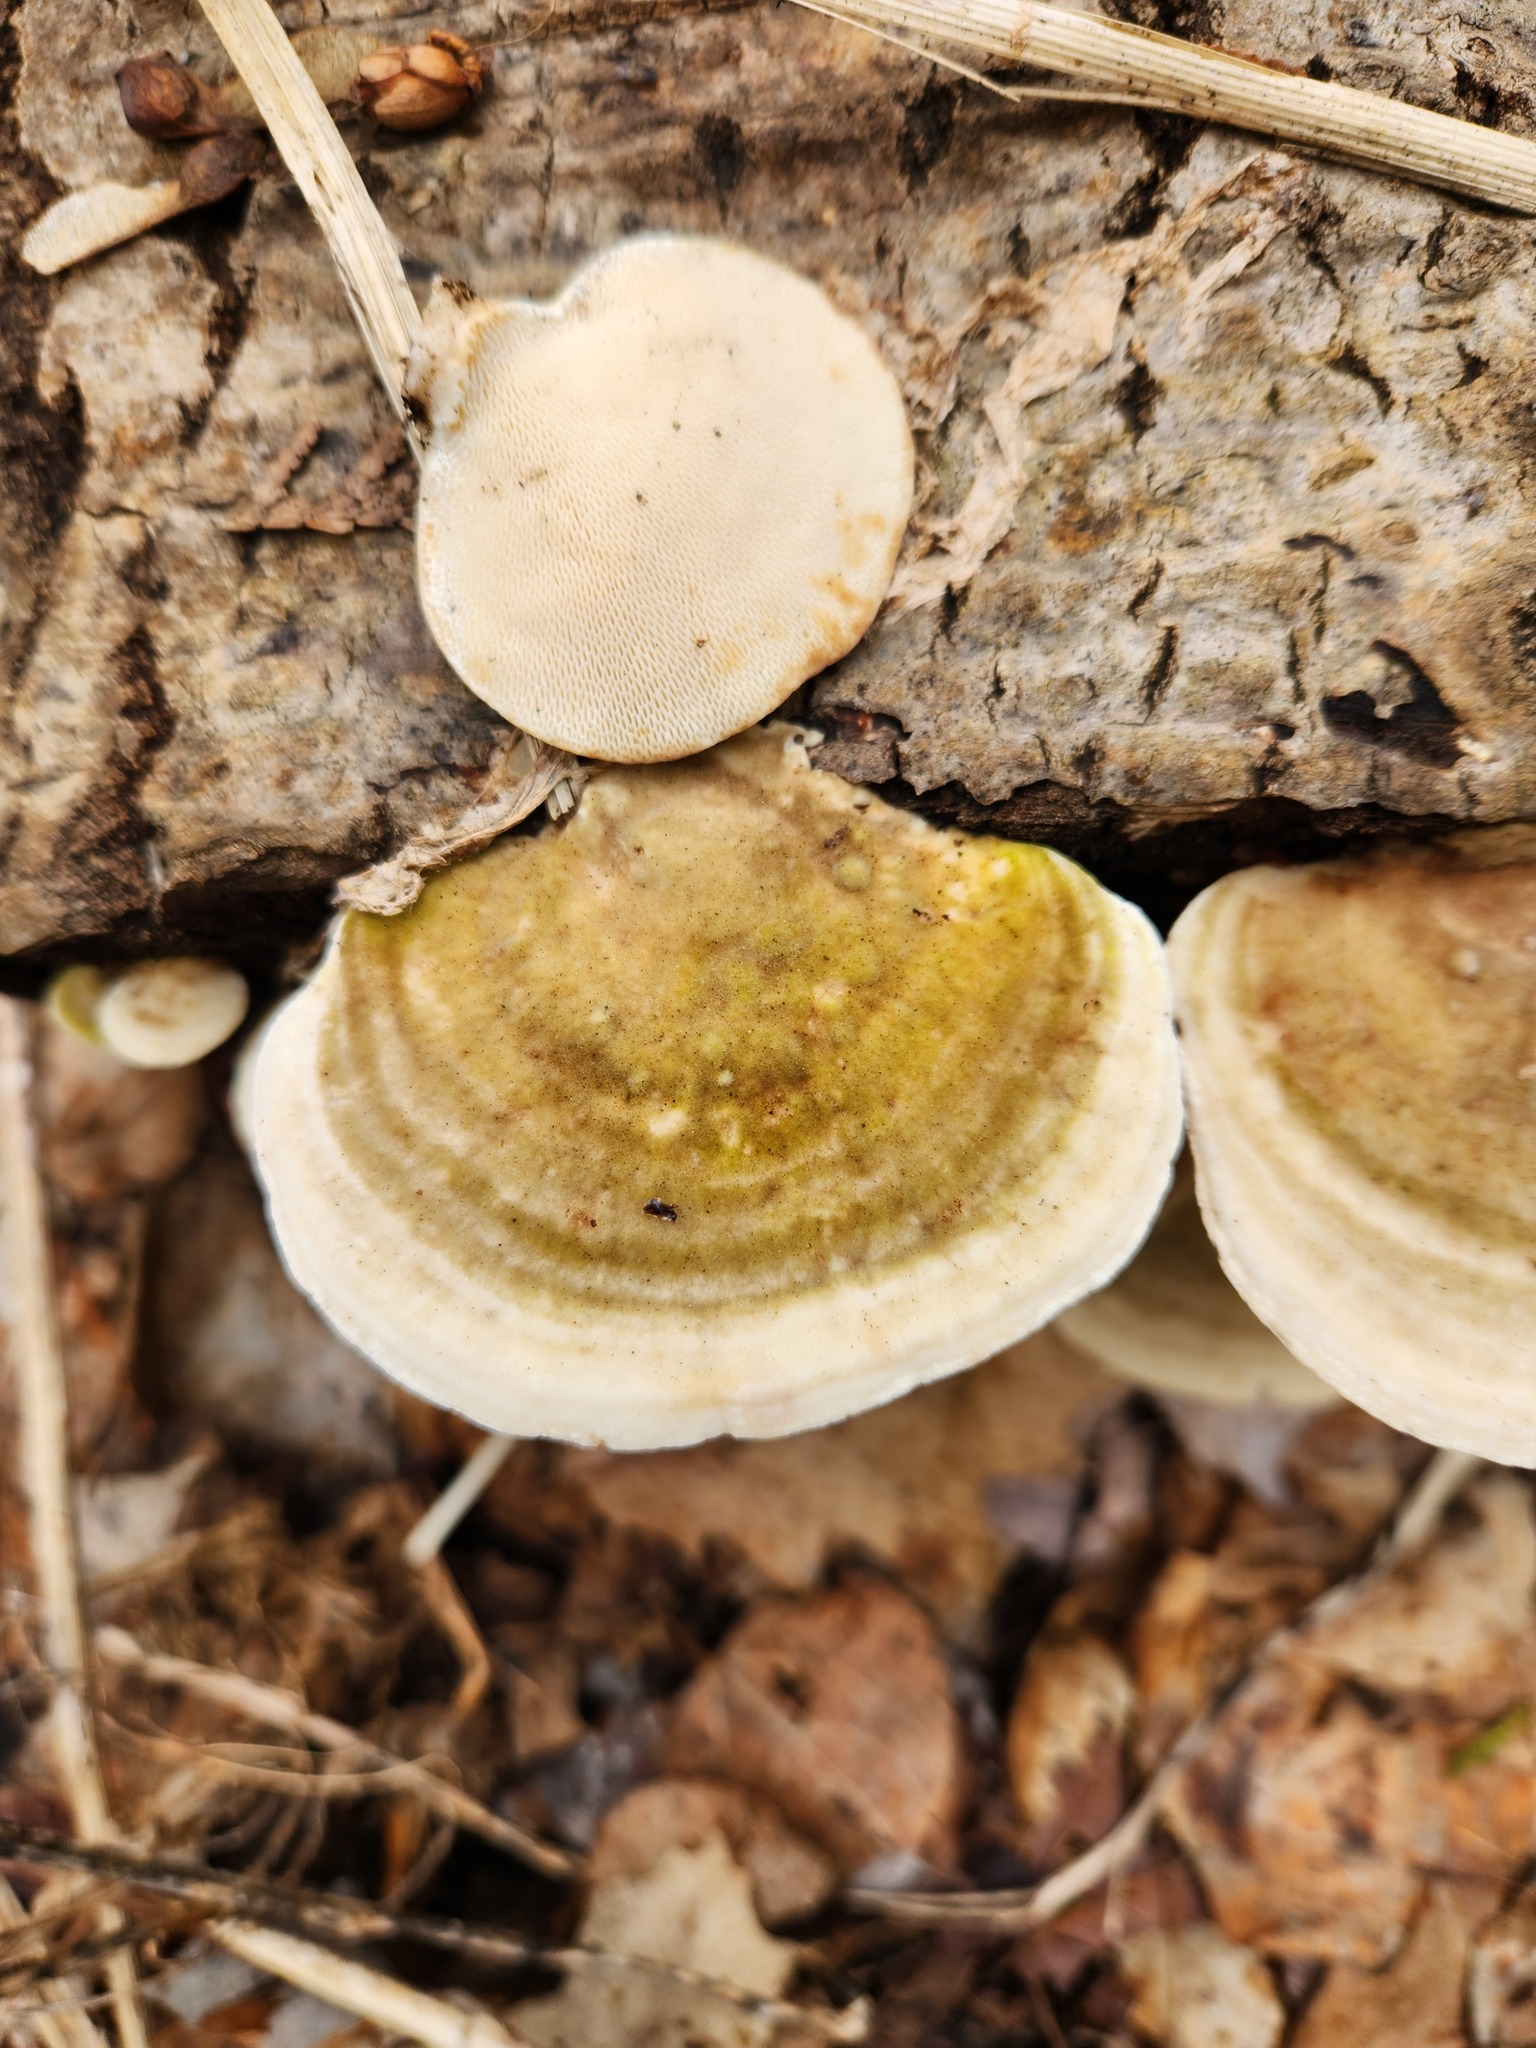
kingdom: Fungi
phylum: Basidiomycota
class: Agaricomycetes
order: Polyporales
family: Polyporaceae
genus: Trametes
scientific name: Trametes gibbosa
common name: Lumpy bracket
